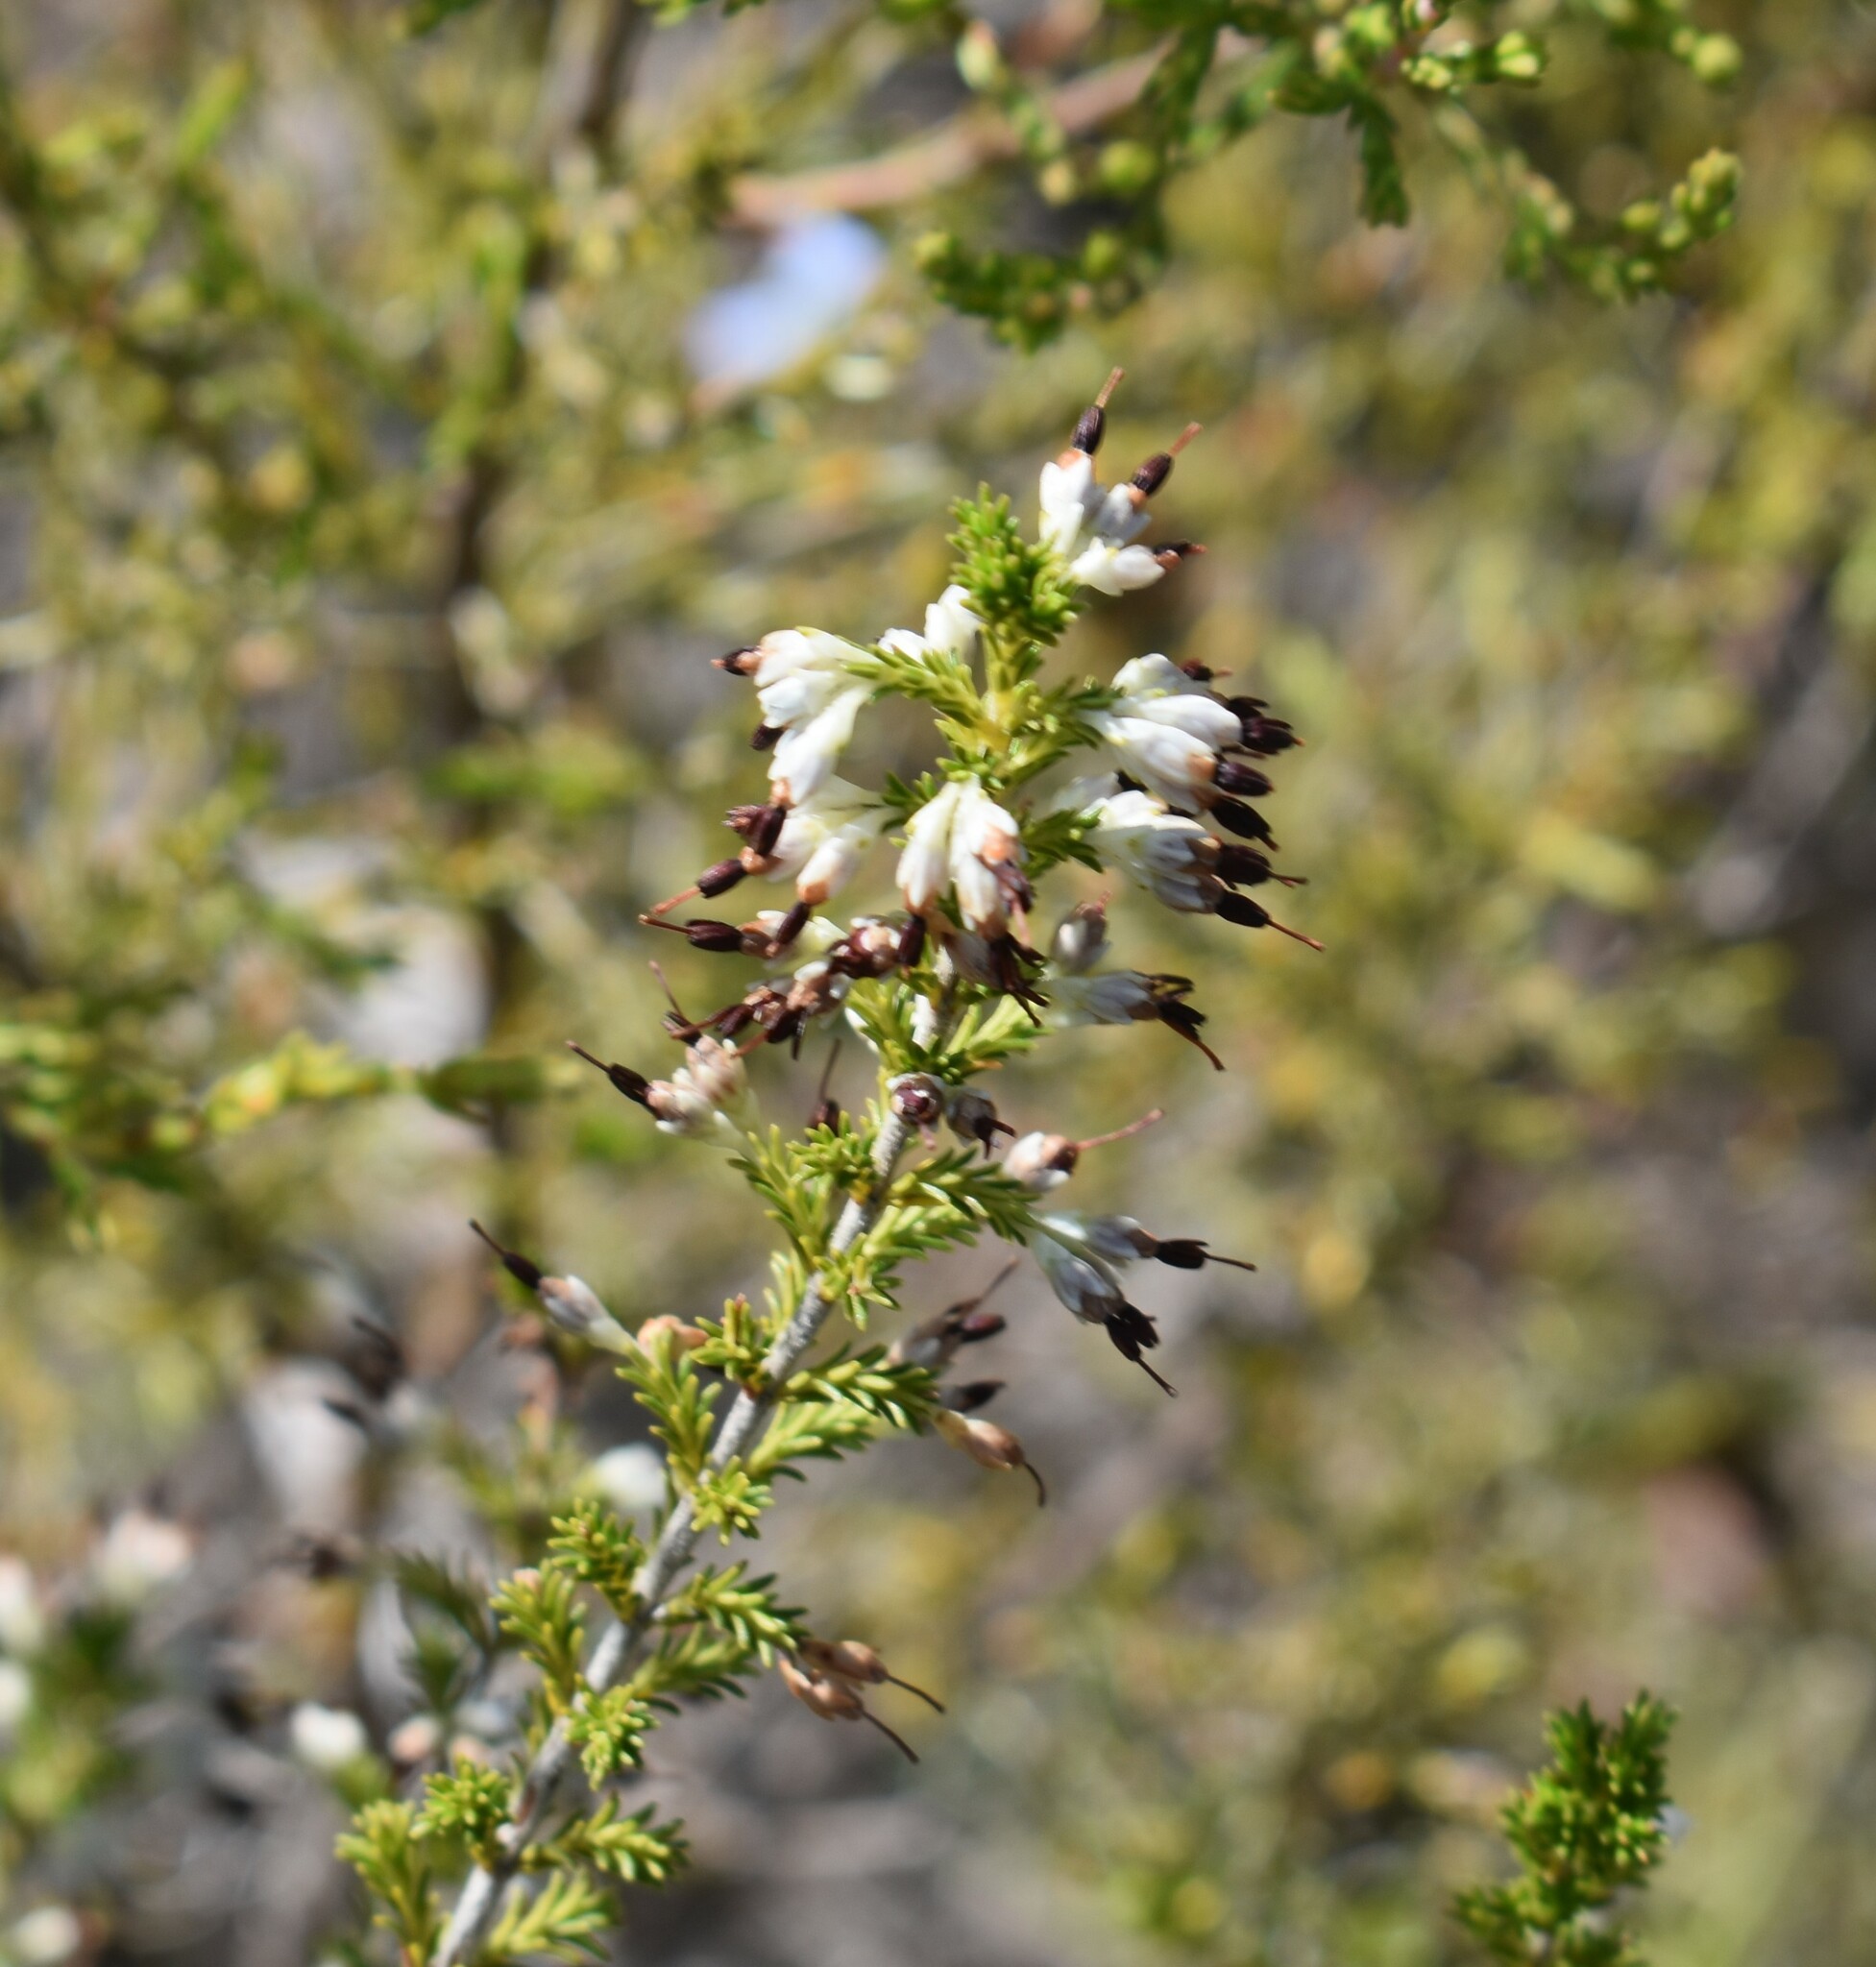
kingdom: Plantae
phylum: Tracheophyta
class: Magnoliopsida
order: Ericales
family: Ericaceae
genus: Erica
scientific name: Erica imbricata
